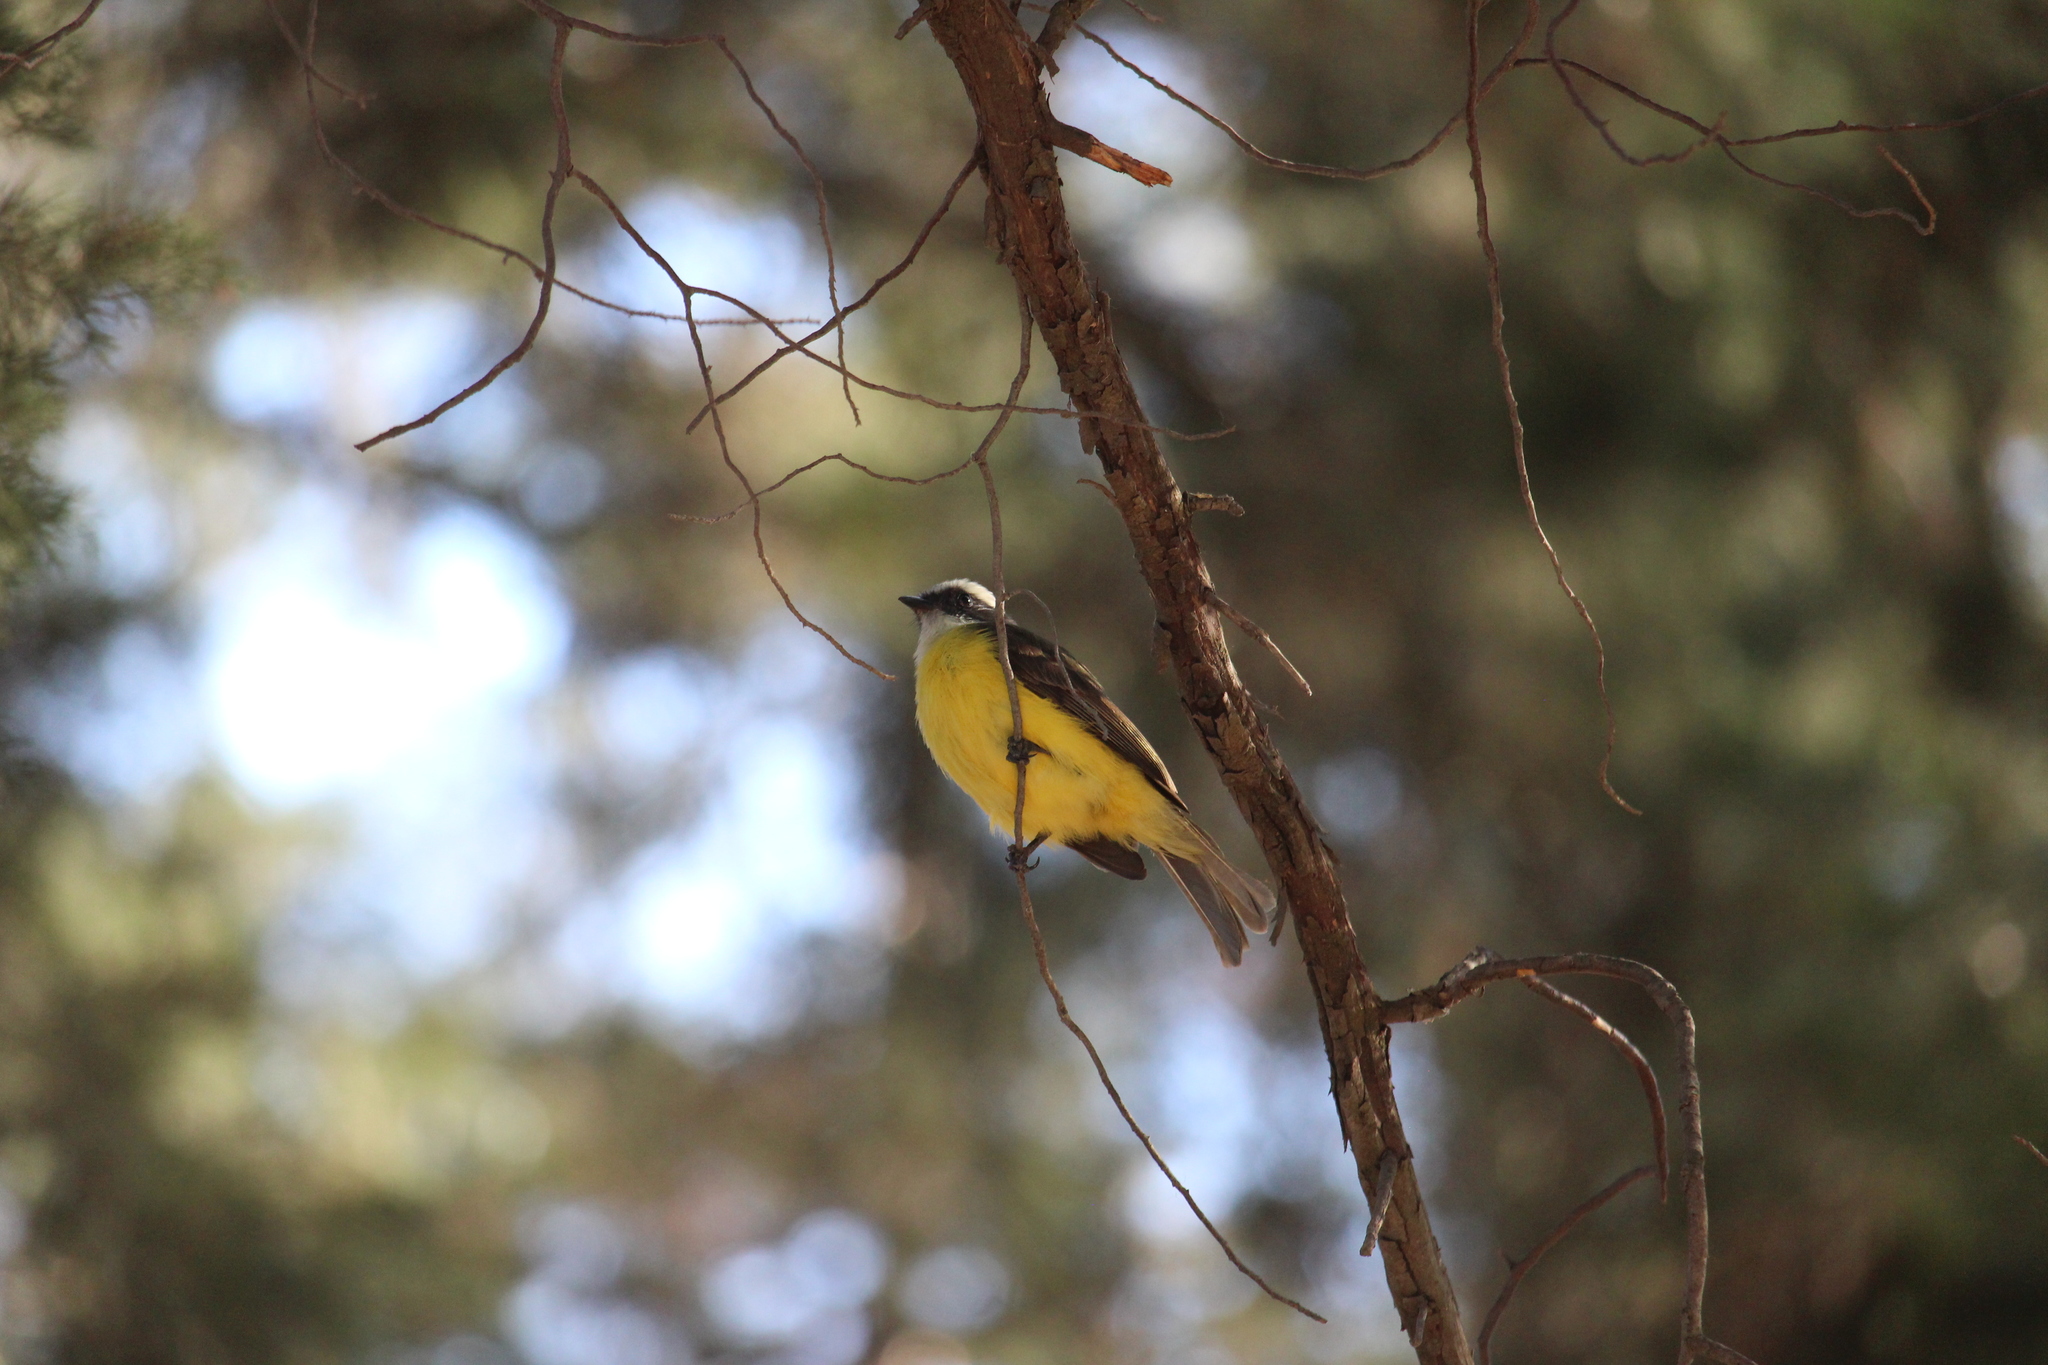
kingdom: Animalia
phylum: Chordata
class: Aves
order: Passeriformes
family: Tyrannidae
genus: Myiozetetes
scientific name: Myiozetetes similis
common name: Social flycatcher
